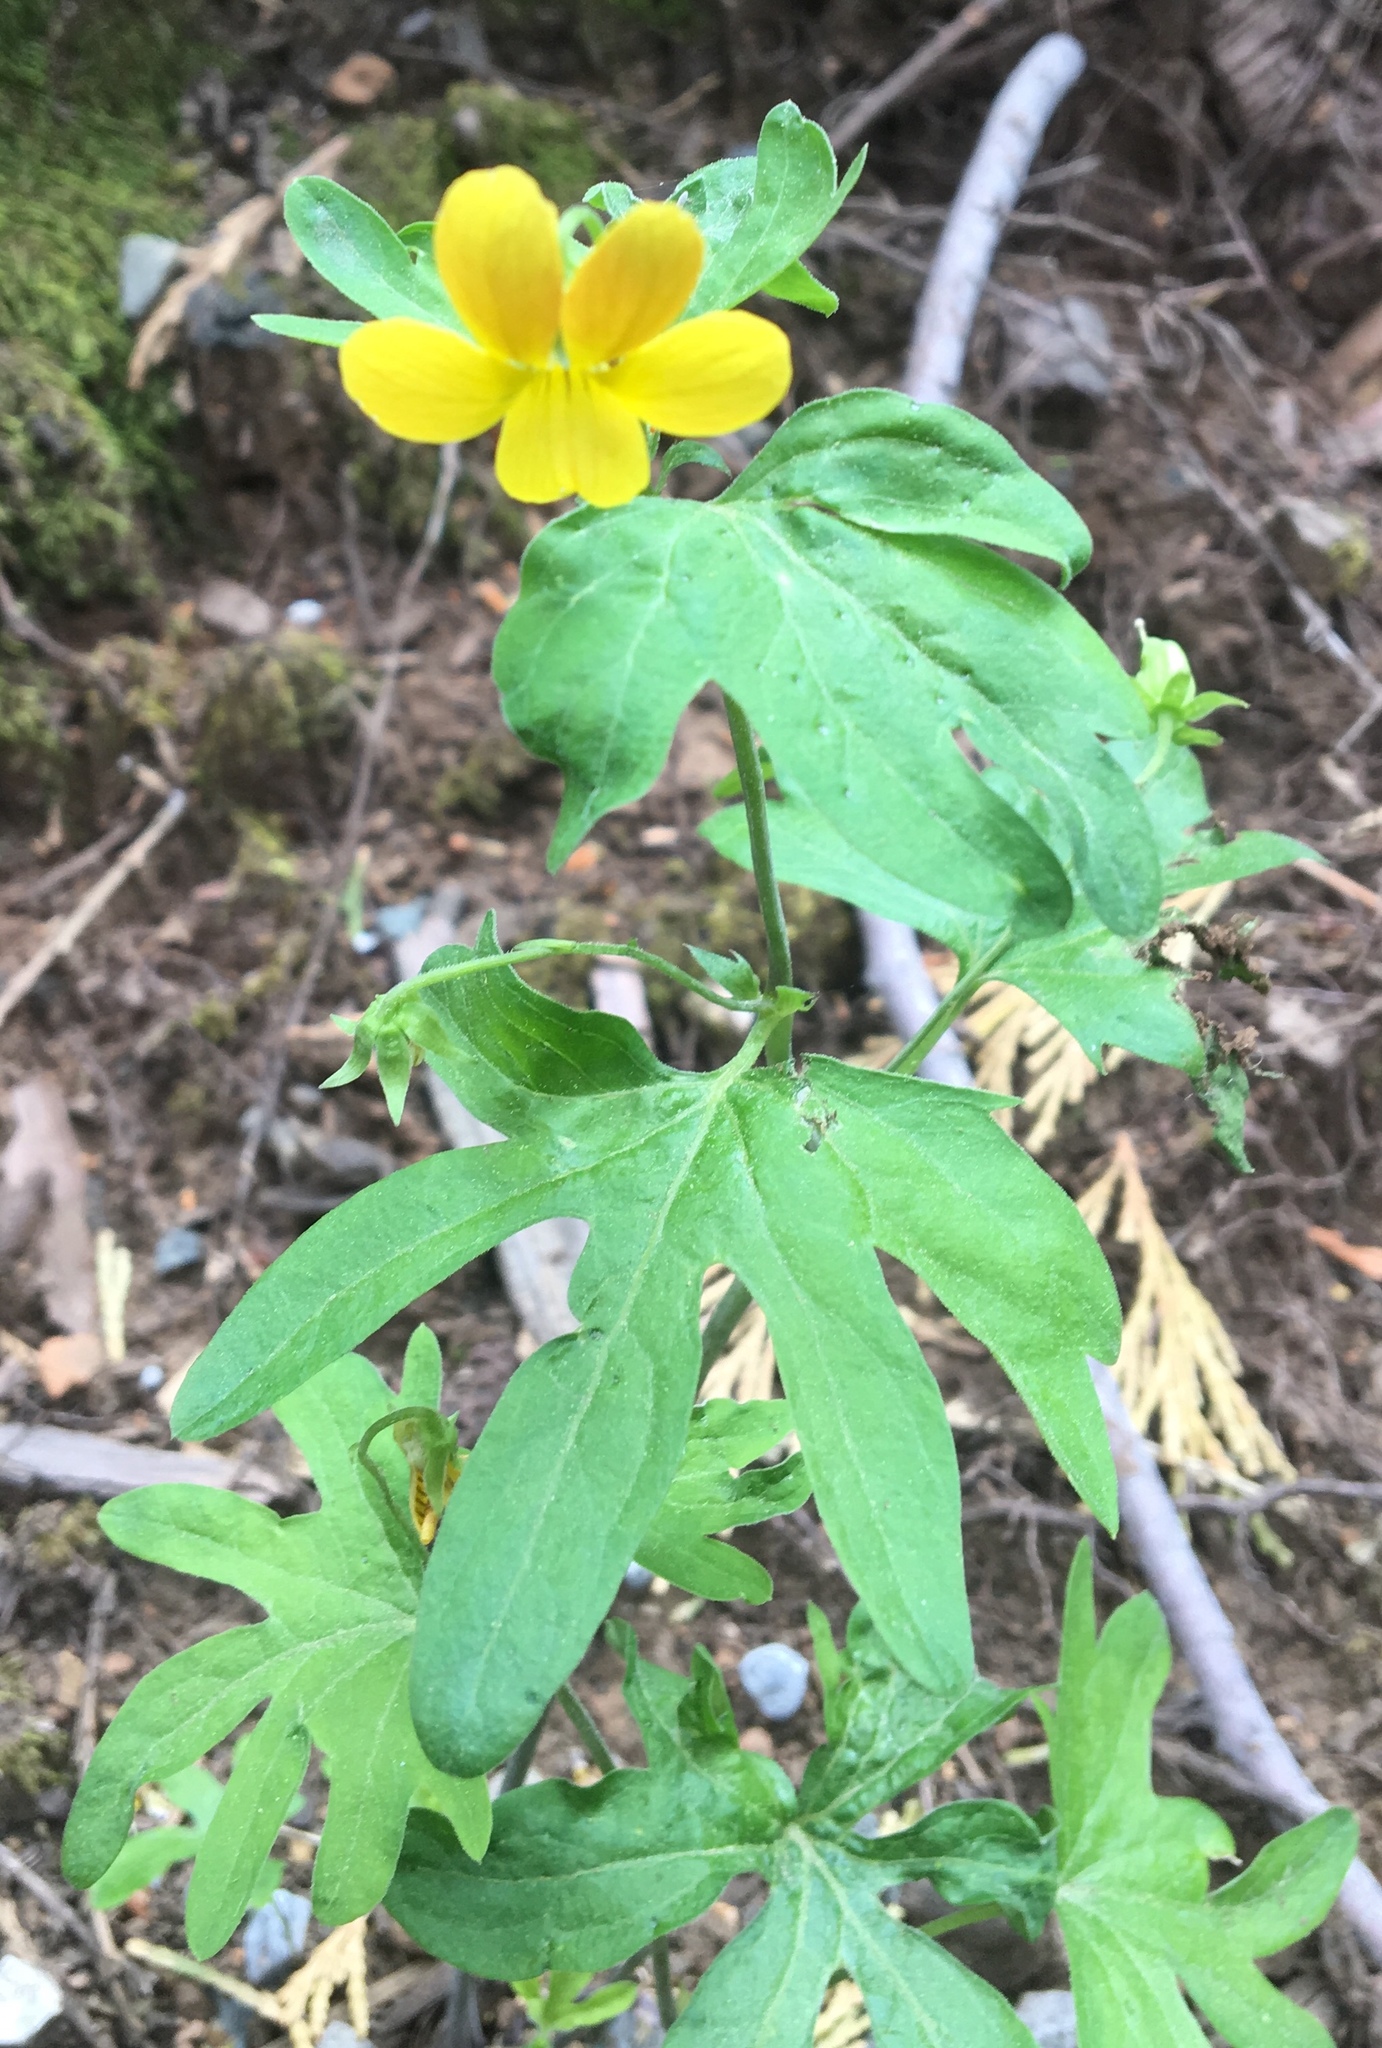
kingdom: Plantae
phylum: Tracheophyta
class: Magnoliopsida
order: Malpighiales
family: Violaceae
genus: Viola
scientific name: Viola lobata
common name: Pine violet
